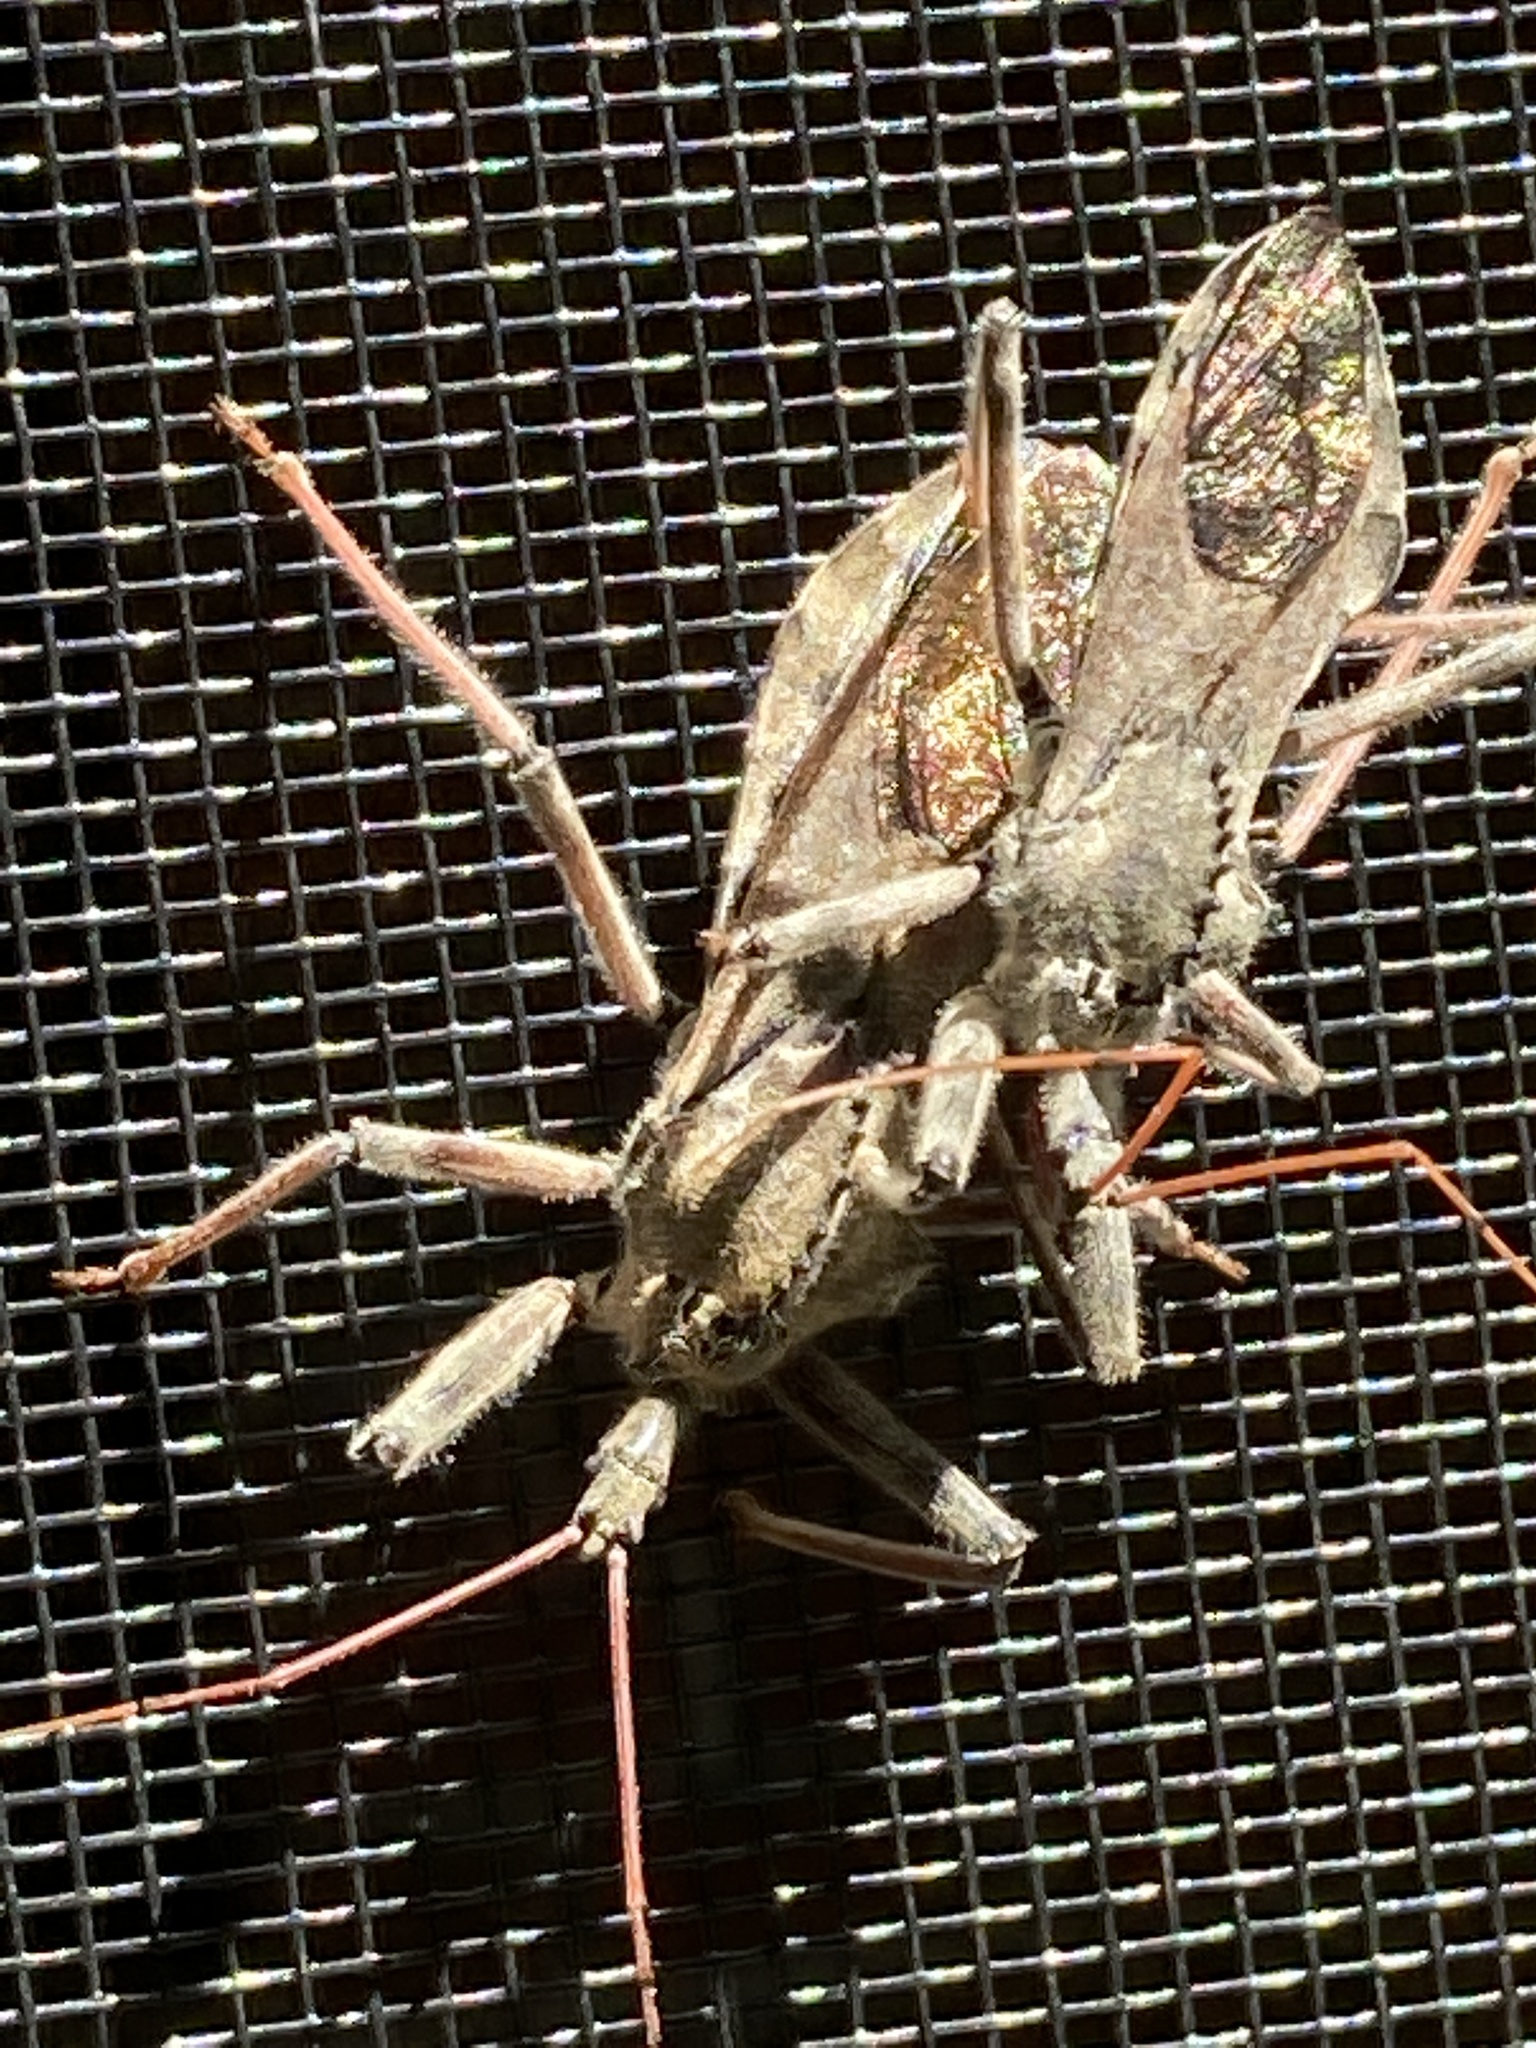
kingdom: Animalia
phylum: Arthropoda
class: Insecta
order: Hemiptera
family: Reduviidae
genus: Arilus
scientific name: Arilus cristatus
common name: North american wheel bug
